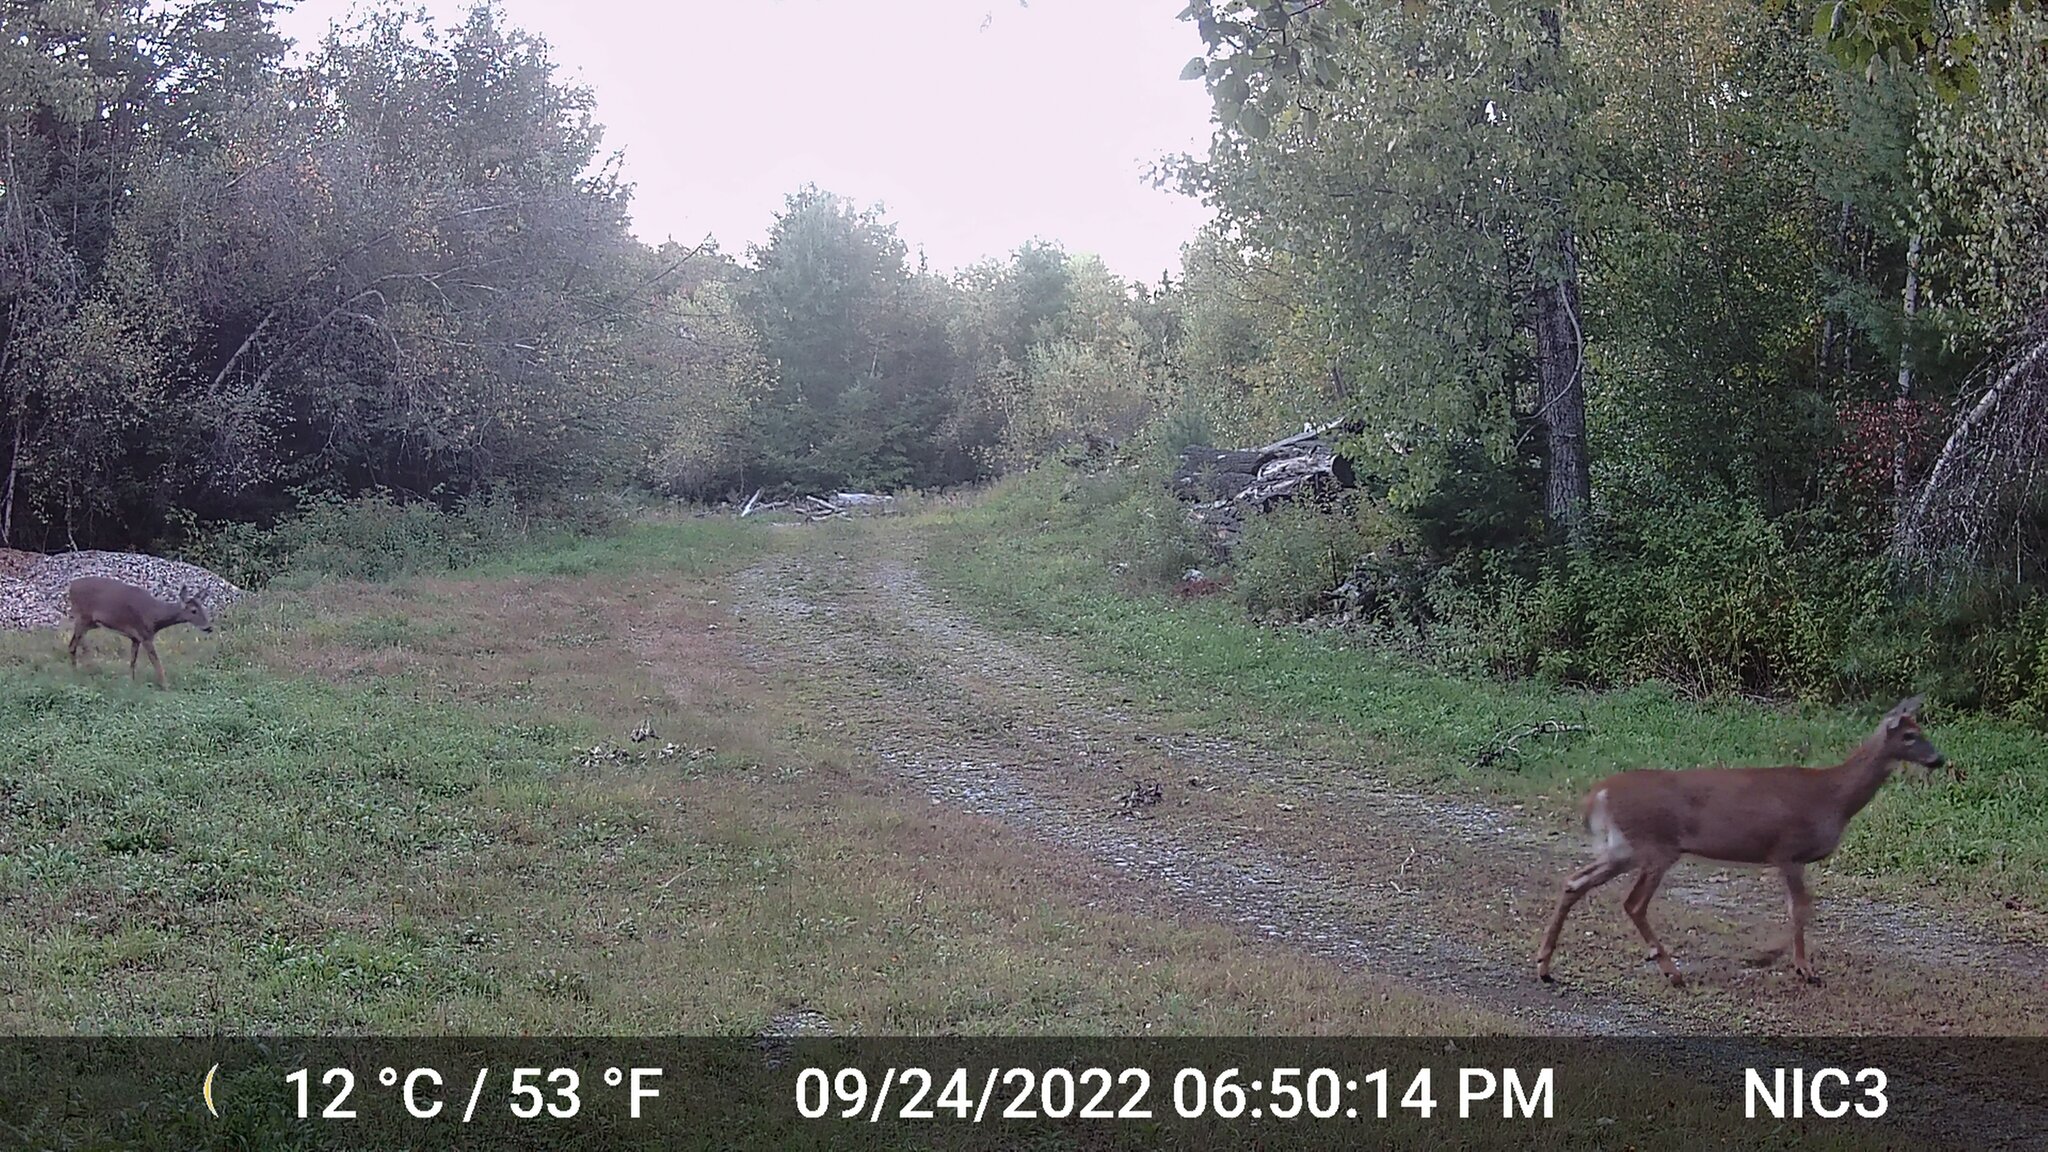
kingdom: Animalia
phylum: Chordata
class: Mammalia
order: Artiodactyla
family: Cervidae
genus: Odocoileus
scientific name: Odocoileus virginianus
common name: White-tailed deer
